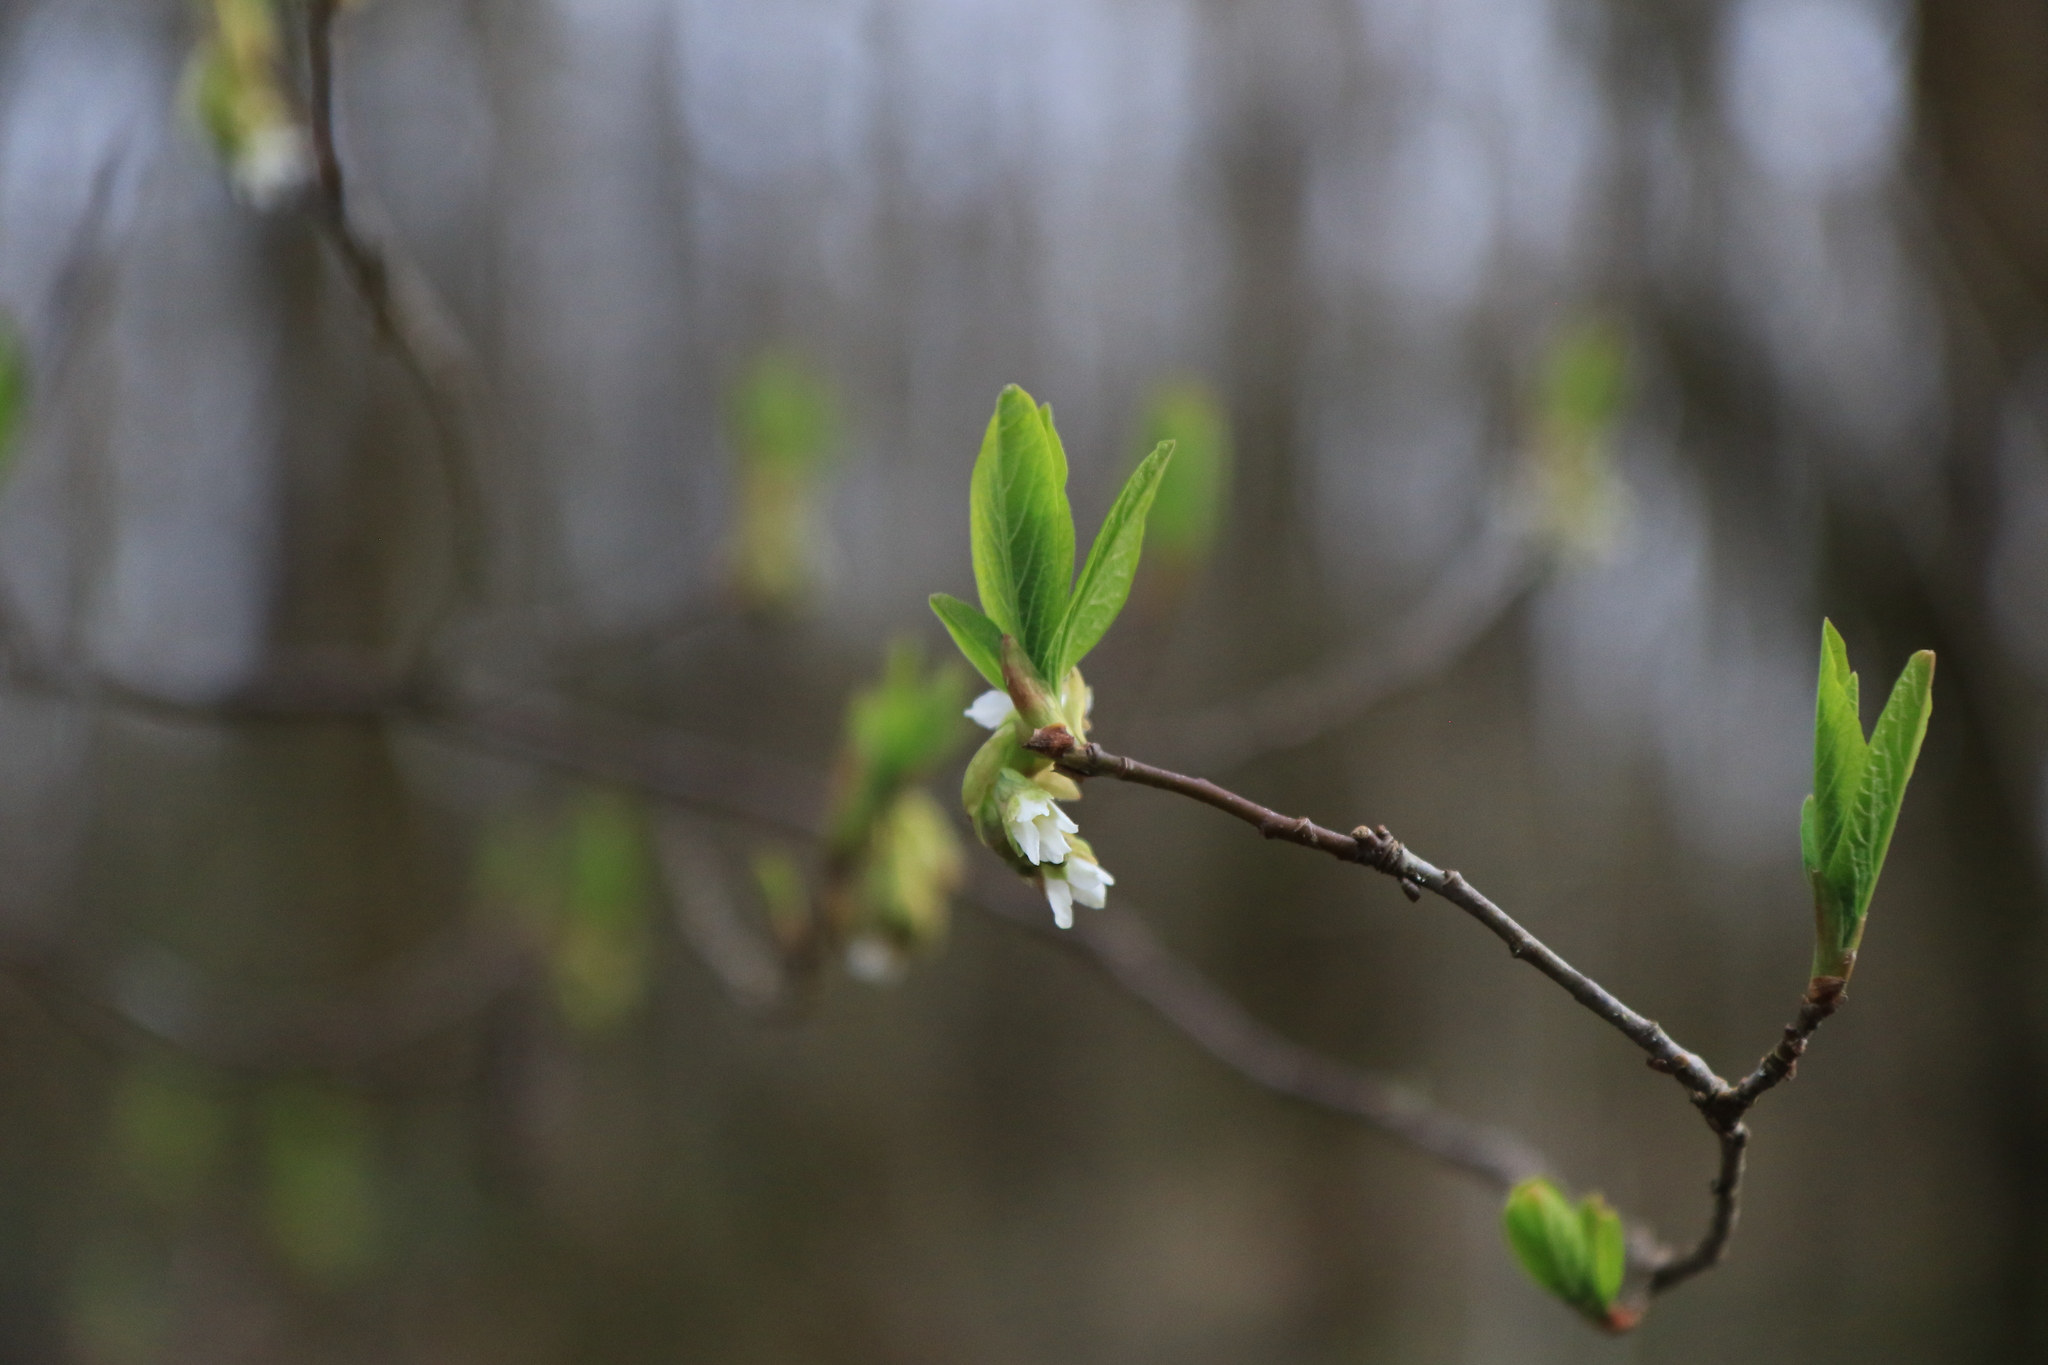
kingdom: Plantae
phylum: Tracheophyta
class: Magnoliopsida
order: Rosales
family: Rosaceae
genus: Oemleria
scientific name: Oemleria cerasiformis
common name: Osoberry
